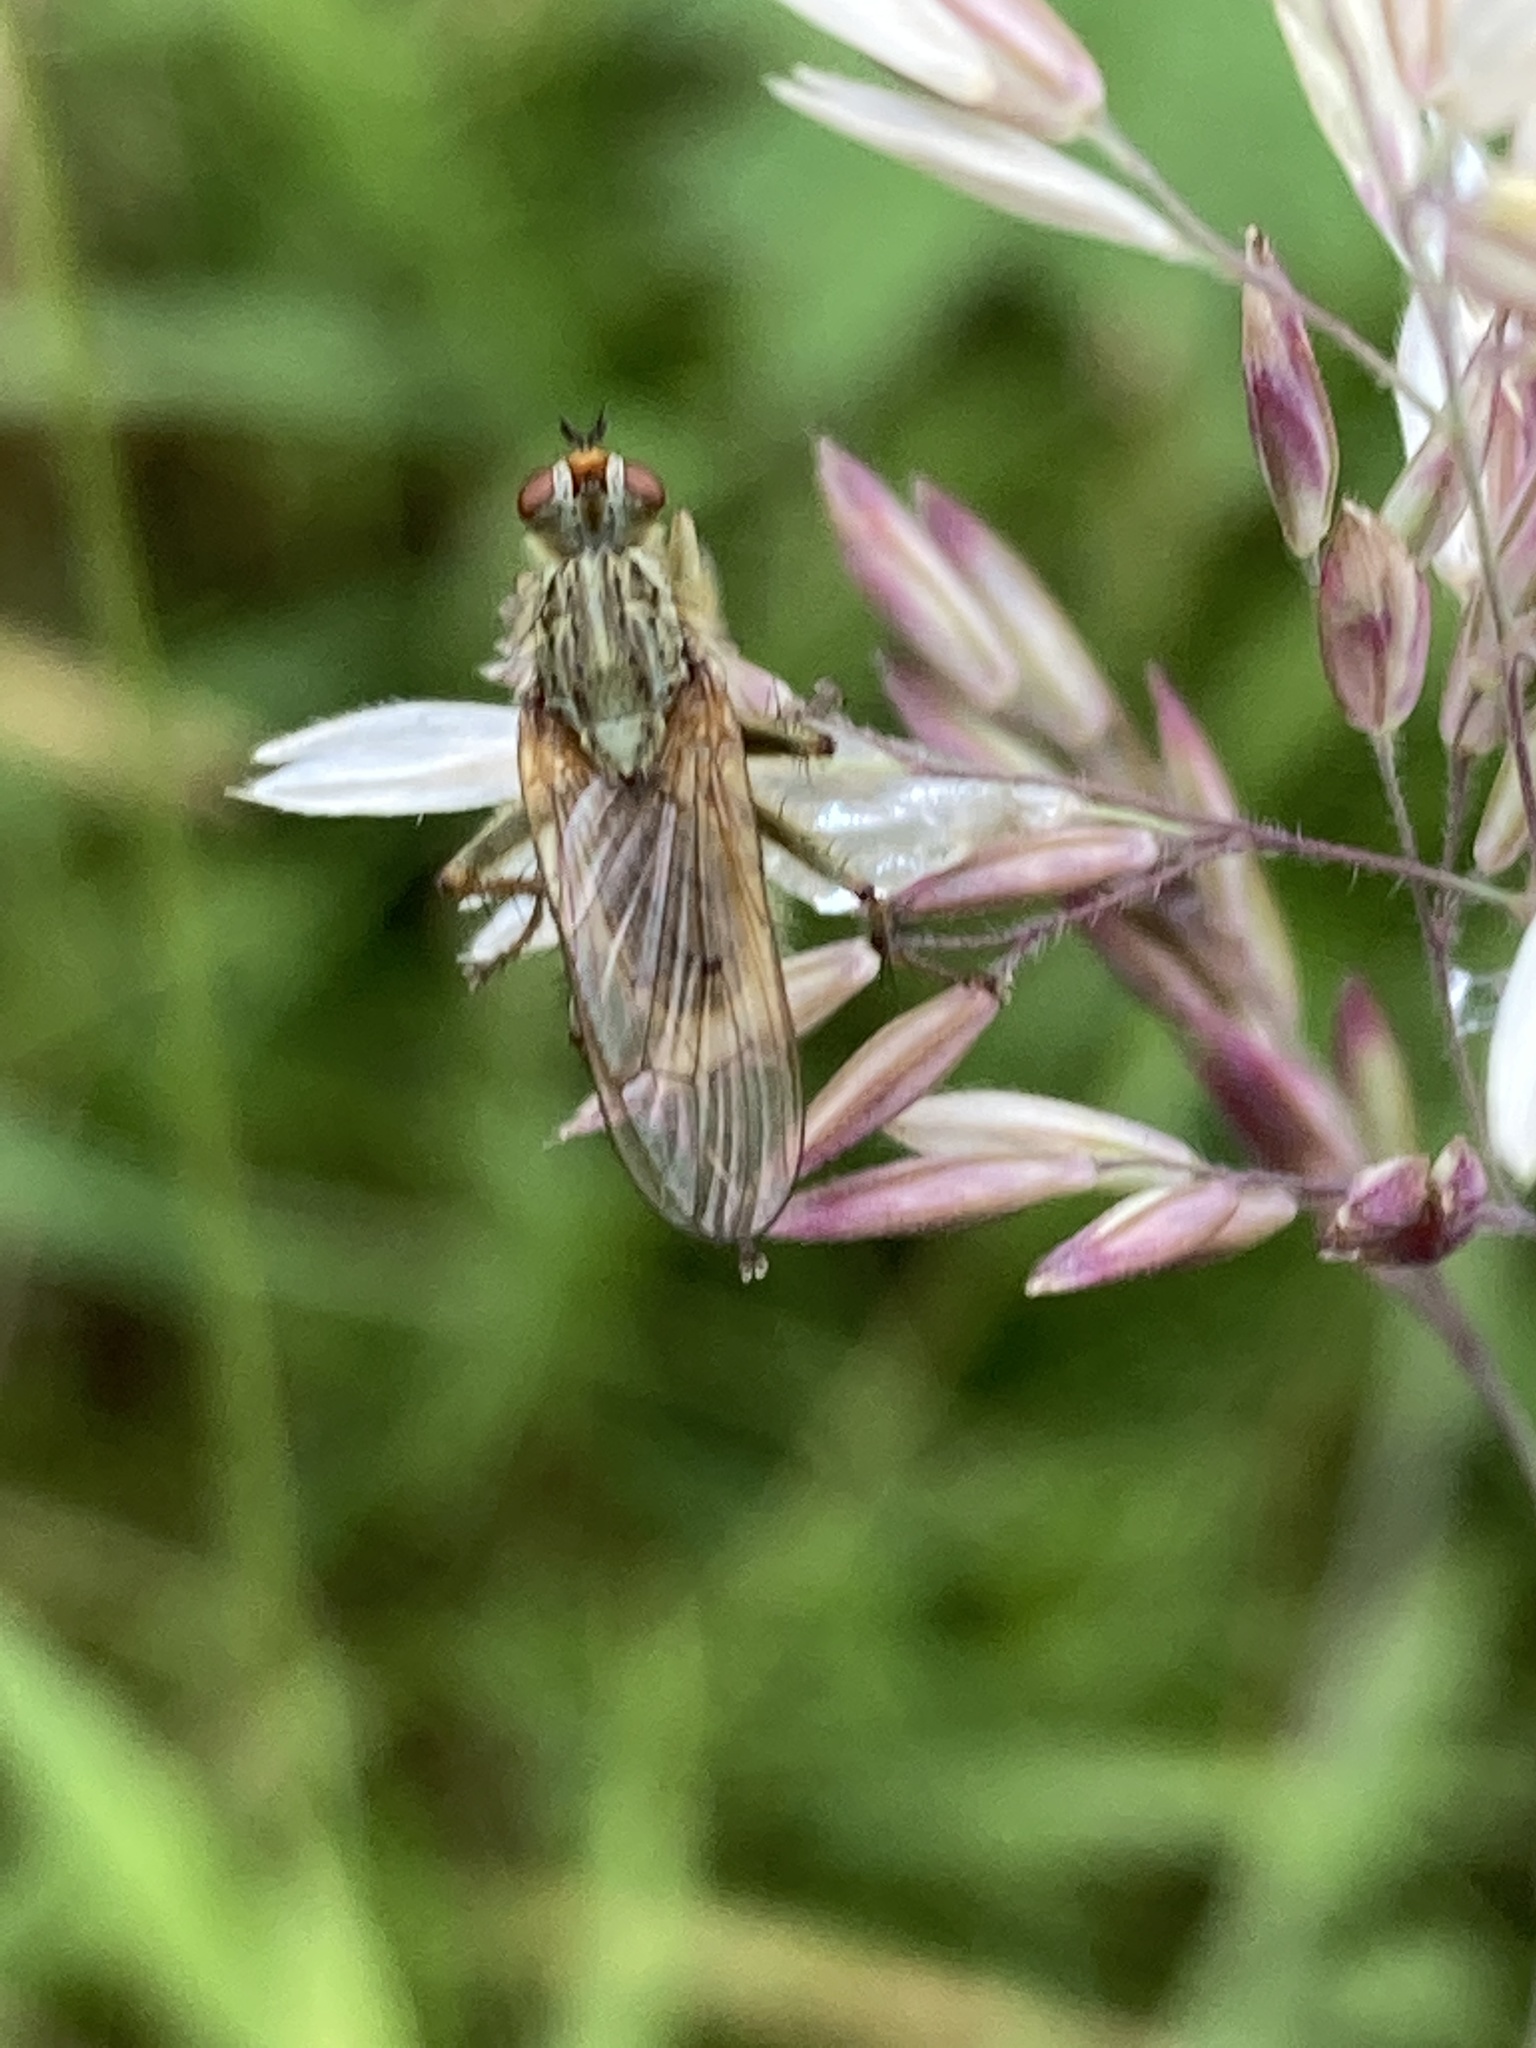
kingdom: Animalia
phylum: Arthropoda
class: Insecta
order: Diptera
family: Scathophagidae
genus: Scathophaga
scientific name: Scathophaga stercoraria
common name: Yellow dung fly
